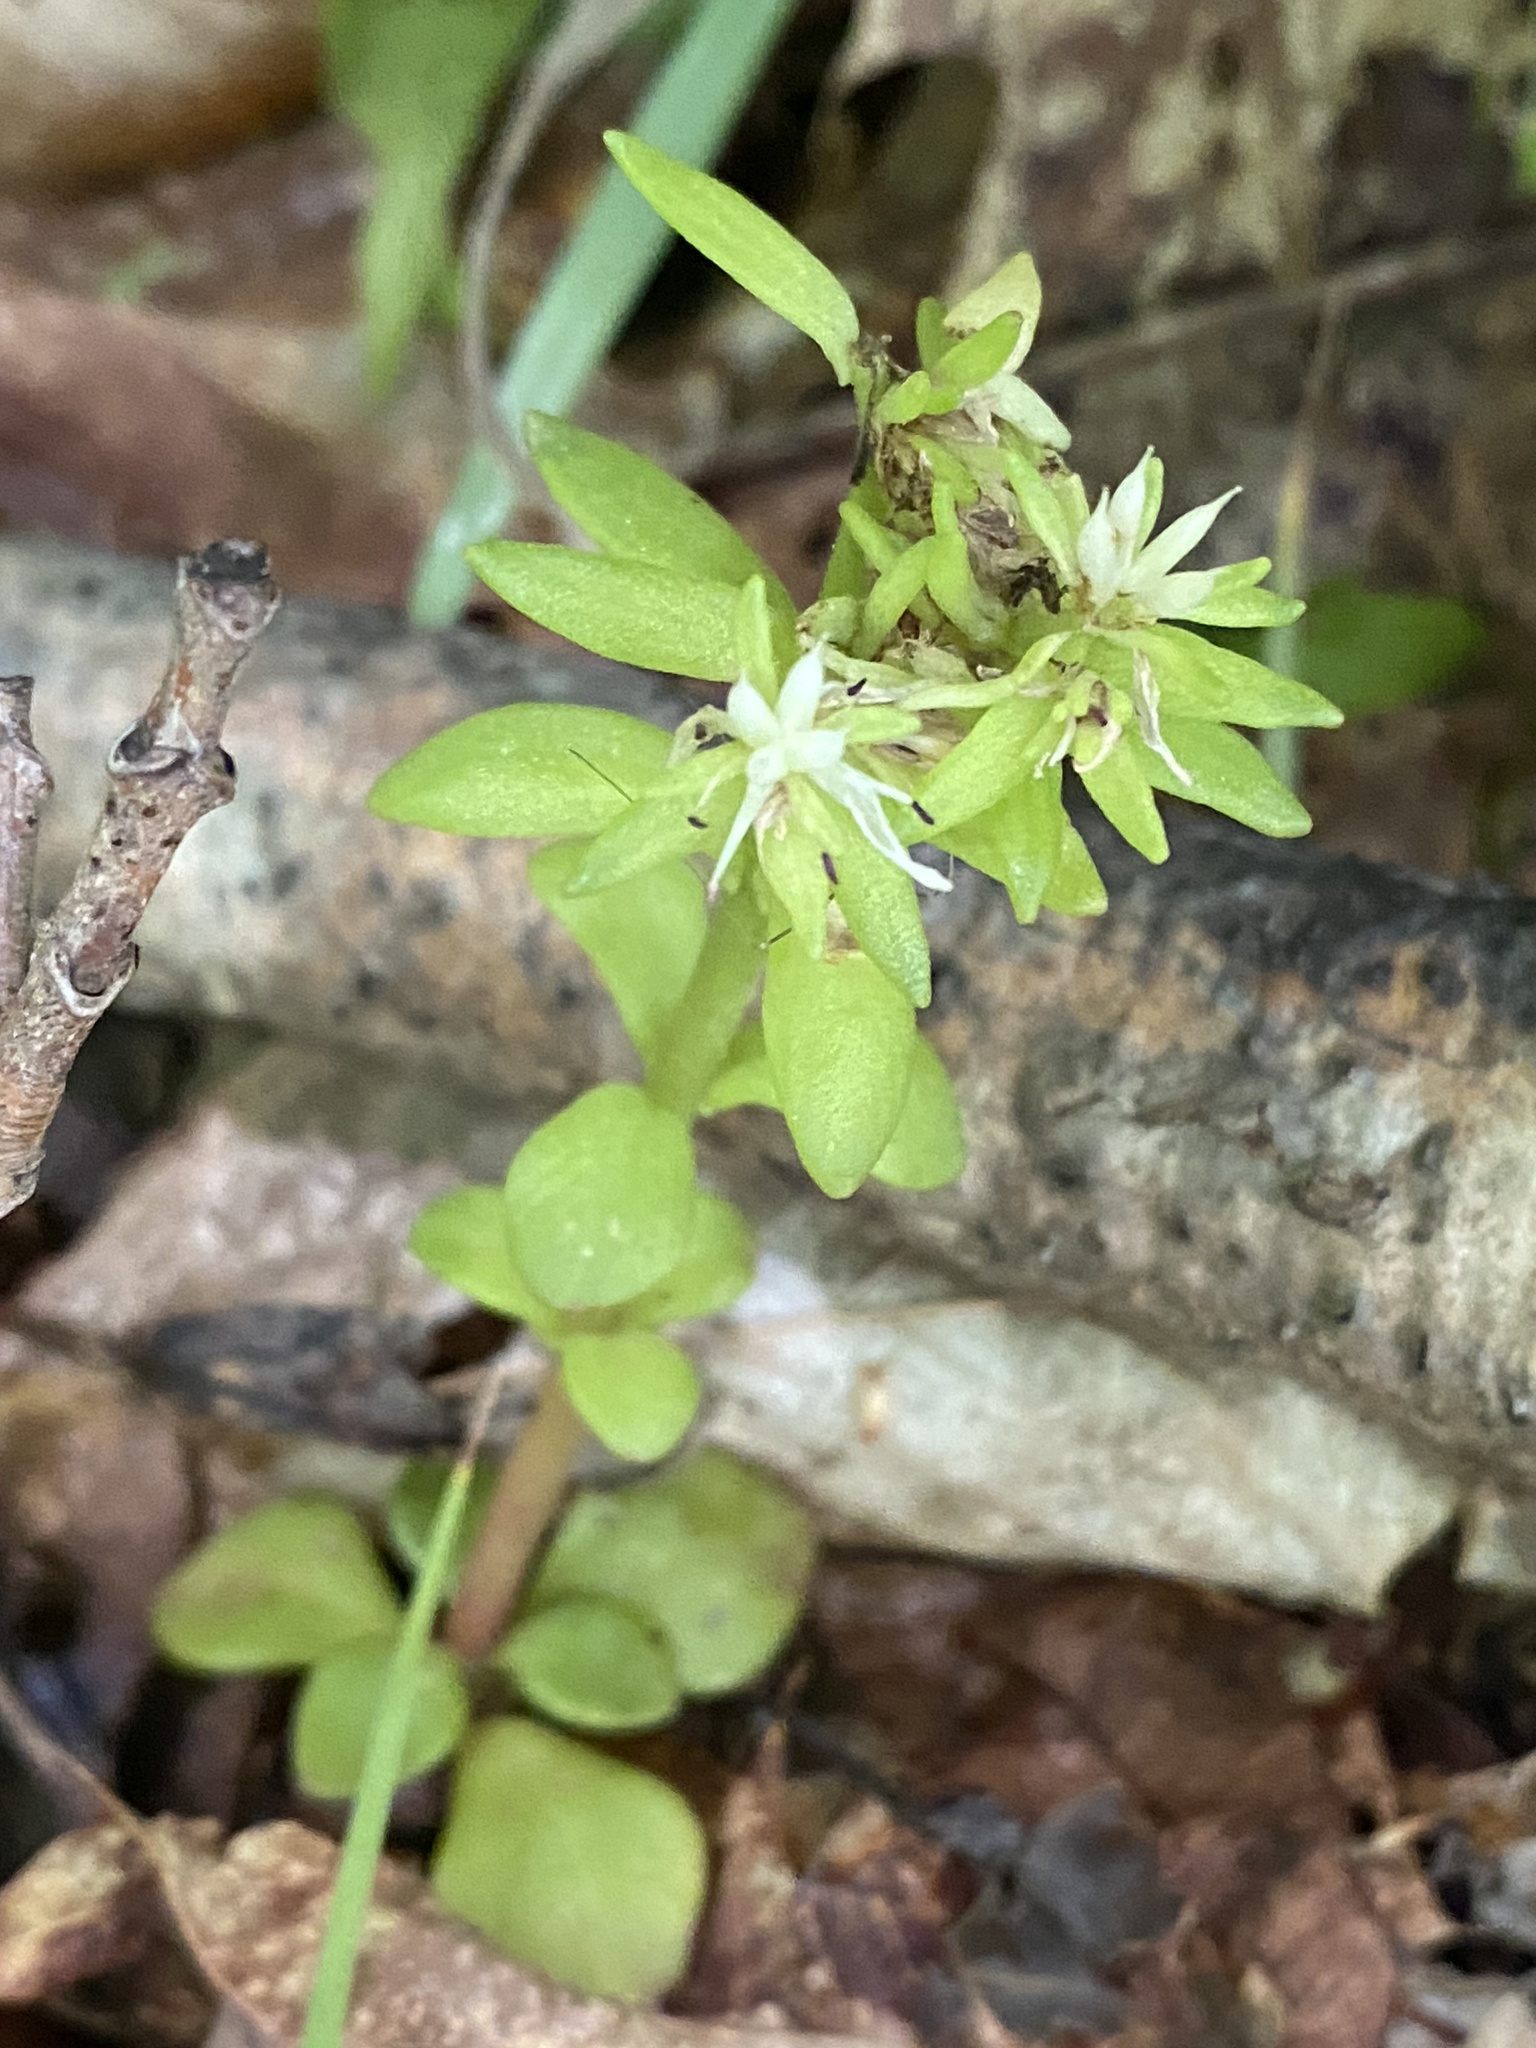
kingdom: Plantae
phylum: Tracheophyta
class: Magnoliopsida
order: Saxifragales
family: Crassulaceae
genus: Sedum
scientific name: Sedum ternatum
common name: Wild stonecrop
